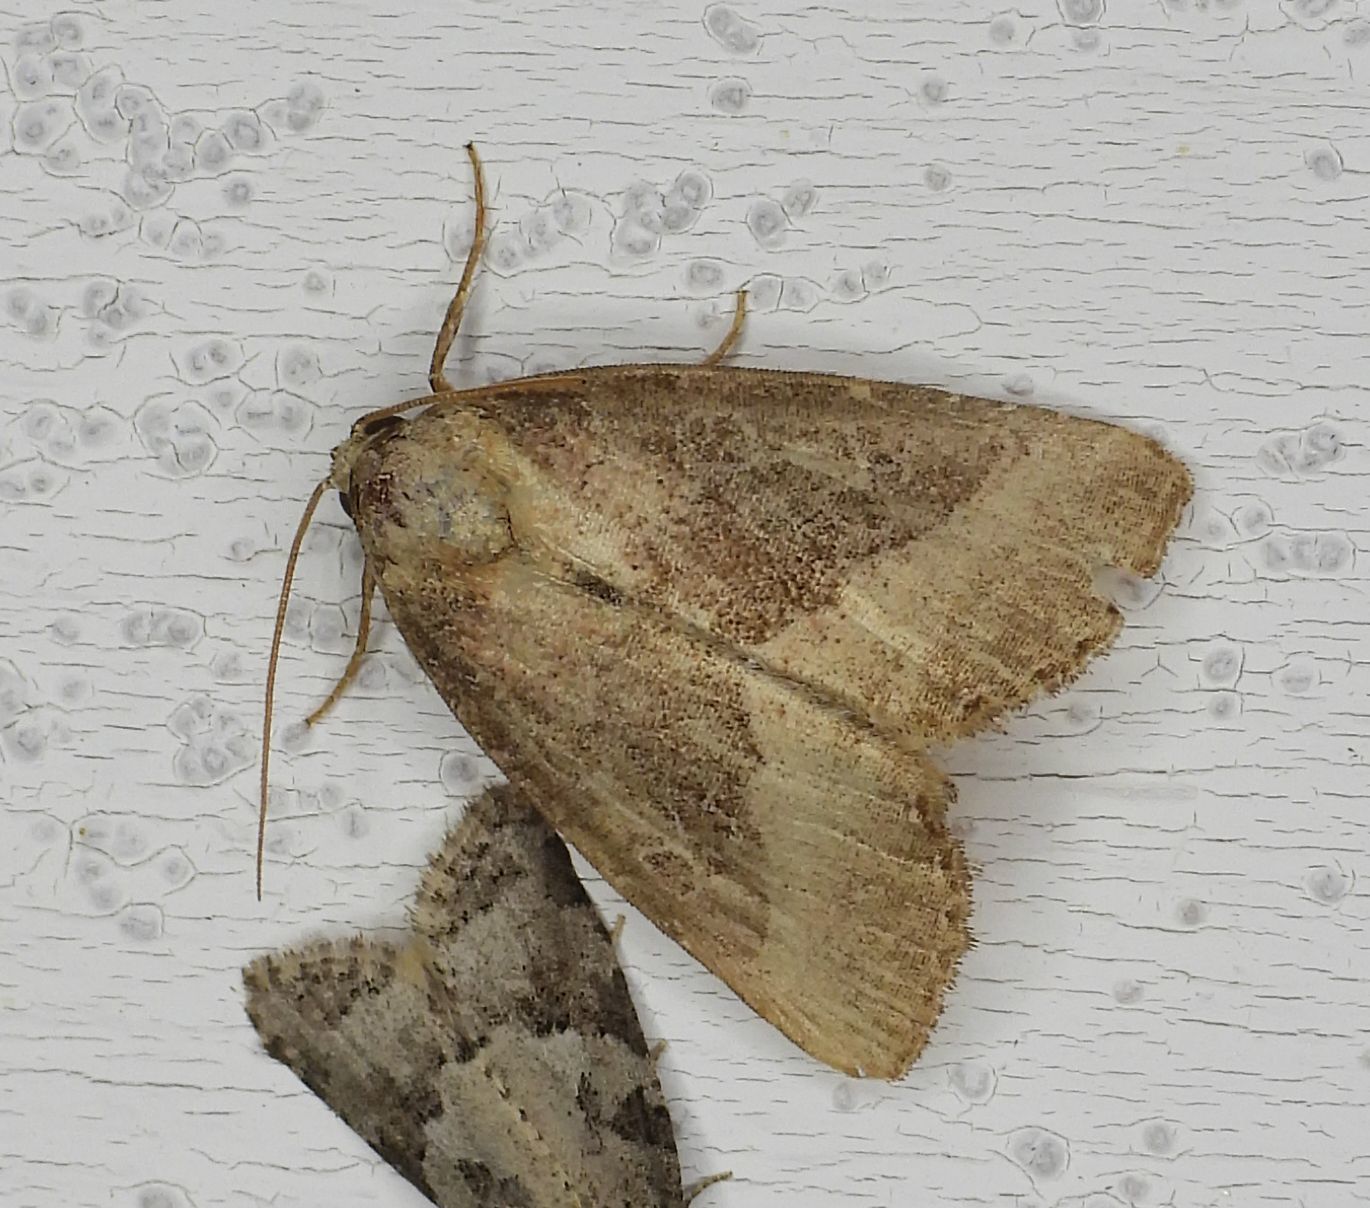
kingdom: Animalia
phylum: Arthropoda
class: Insecta
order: Lepidoptera
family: Noctuidae
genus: Ogdoconta
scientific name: Ogdoconta cinereola
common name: Common pinkband
